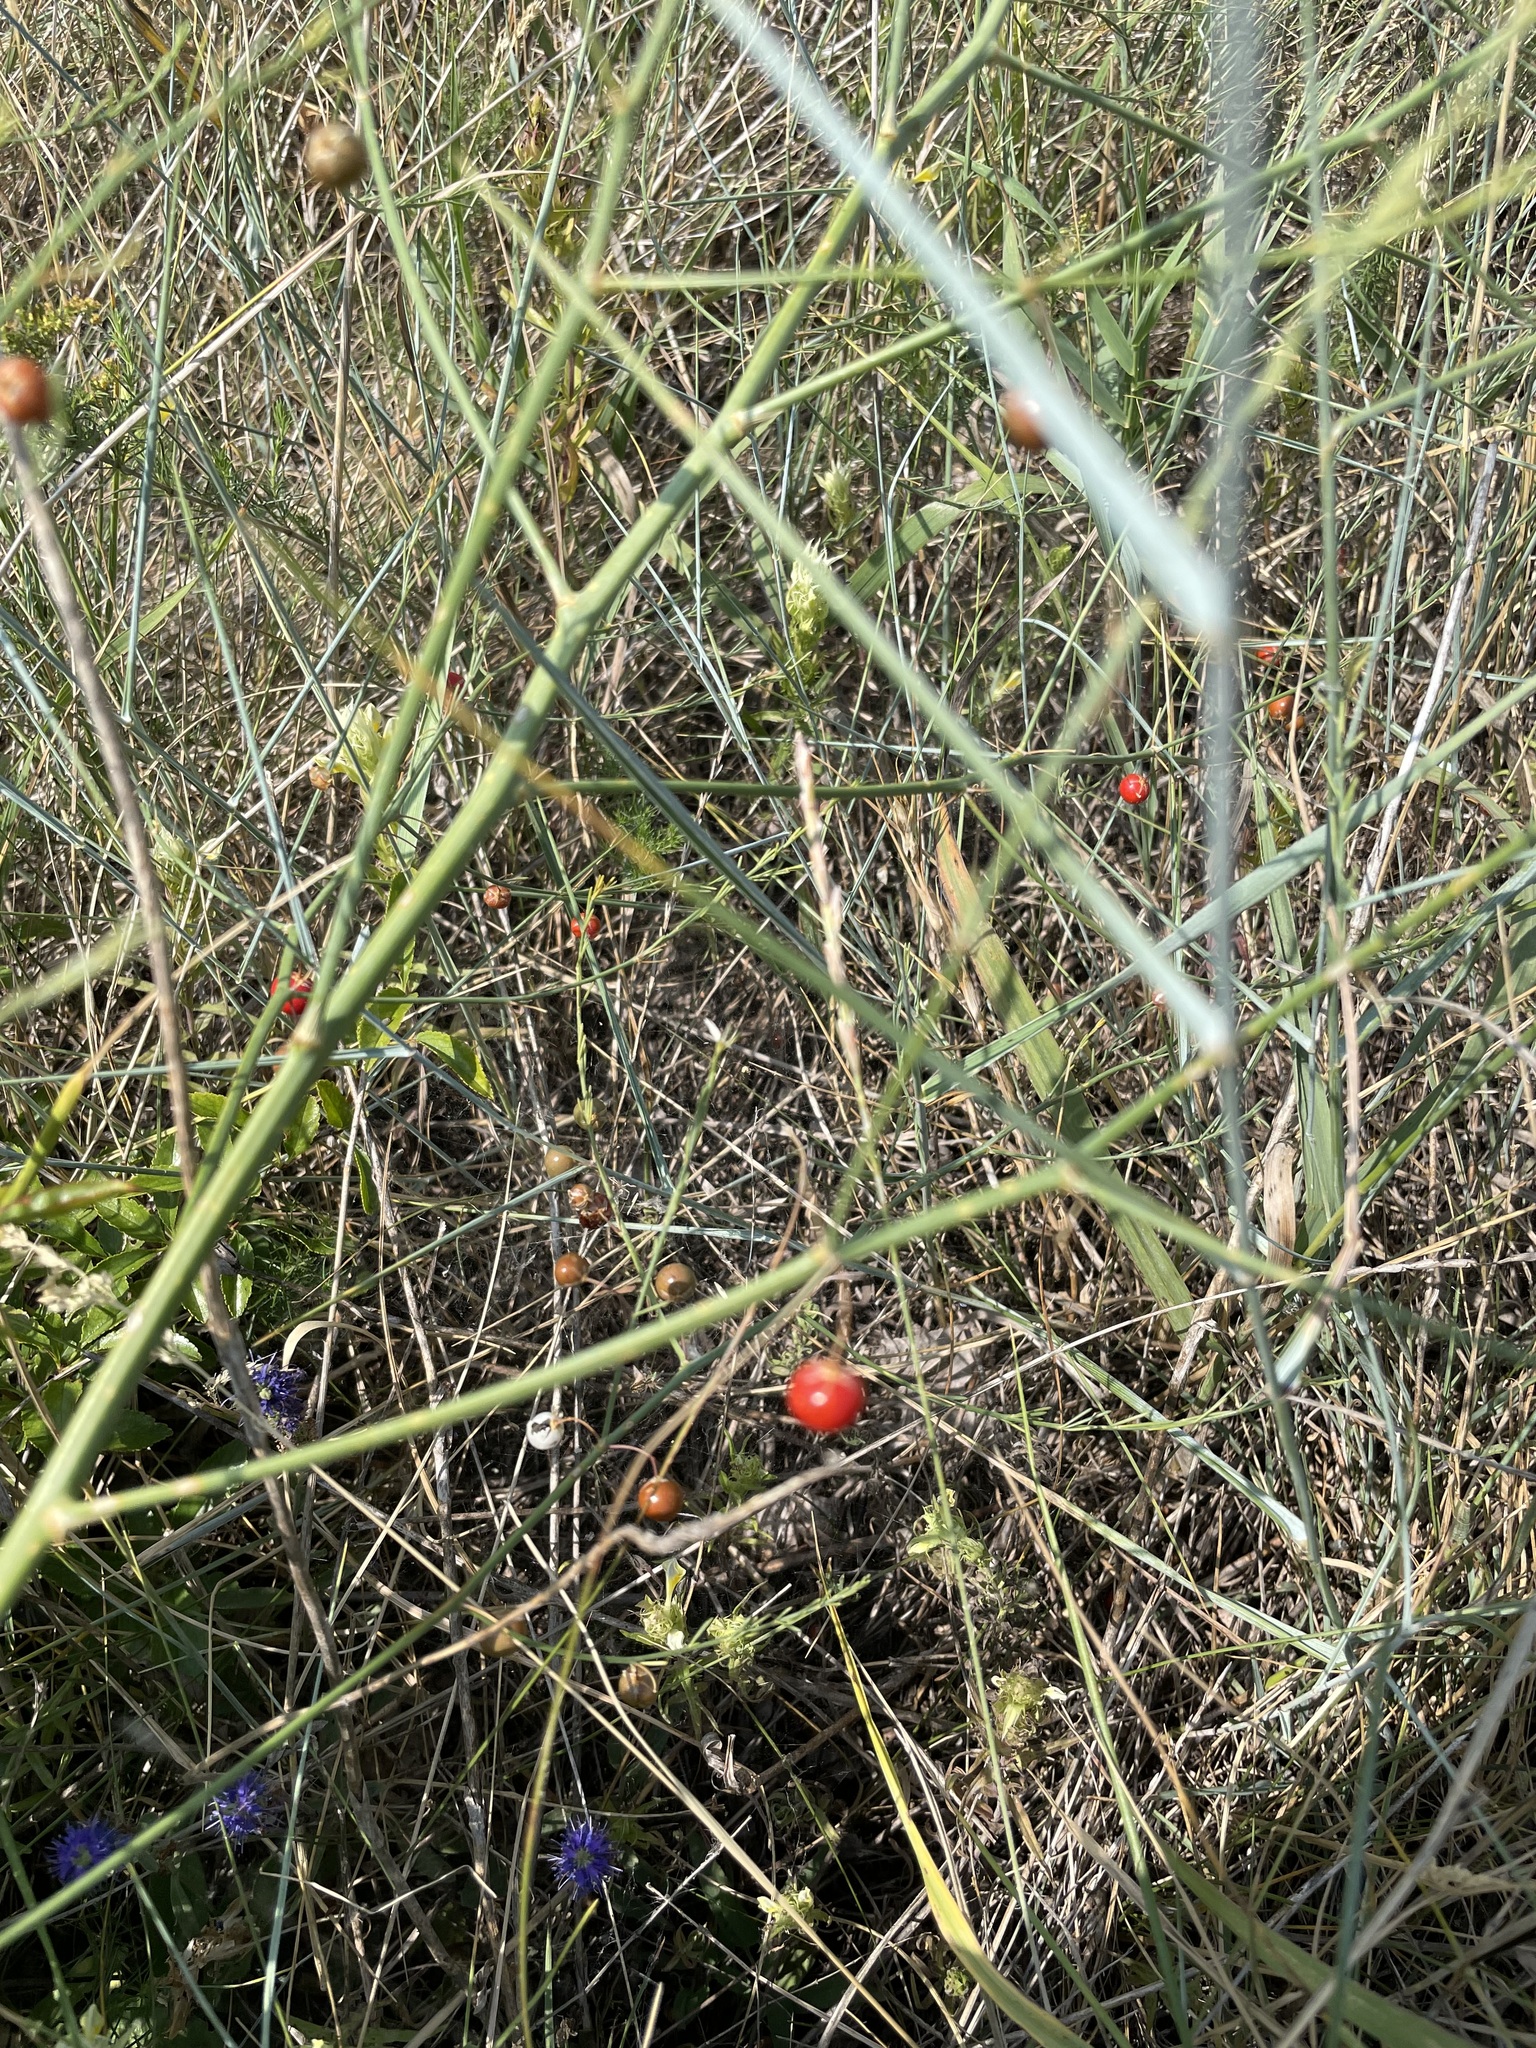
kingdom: Plantae
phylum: Tracheophyta
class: Liliopsida
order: Asparagales
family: Asparagaceae
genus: Asparagus
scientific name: Asparagus officinalis
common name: Garden asparagus
